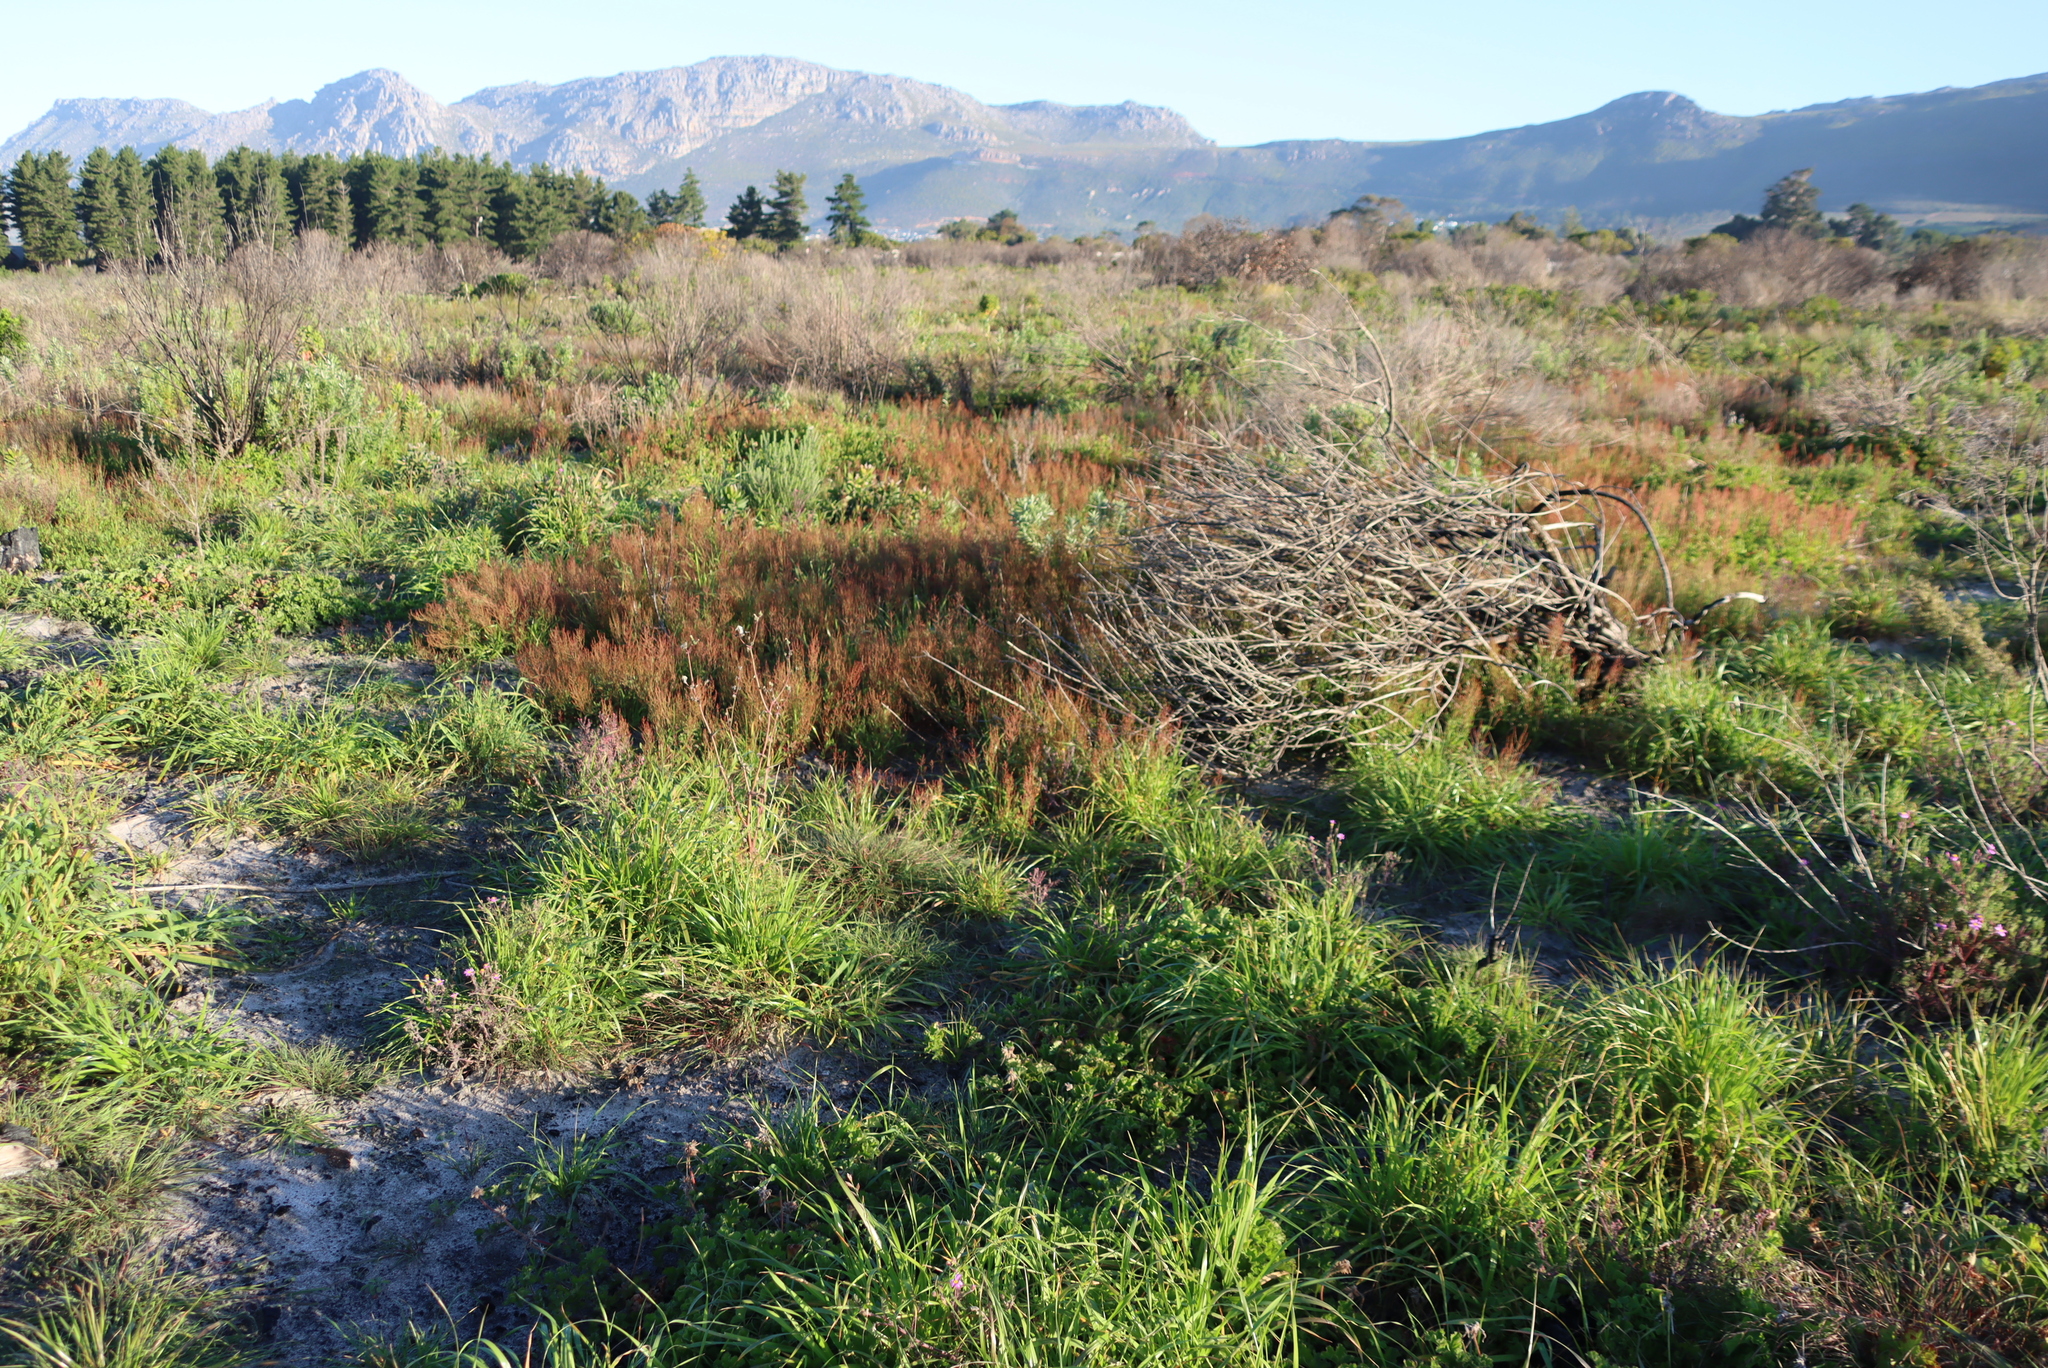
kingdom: Plantae
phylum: Tracheophyta
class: Magnoliopsida
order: Caryophyllales
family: Polygonaceae
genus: Rumex
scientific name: Rumex acetosella
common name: Common sheep sorrel
